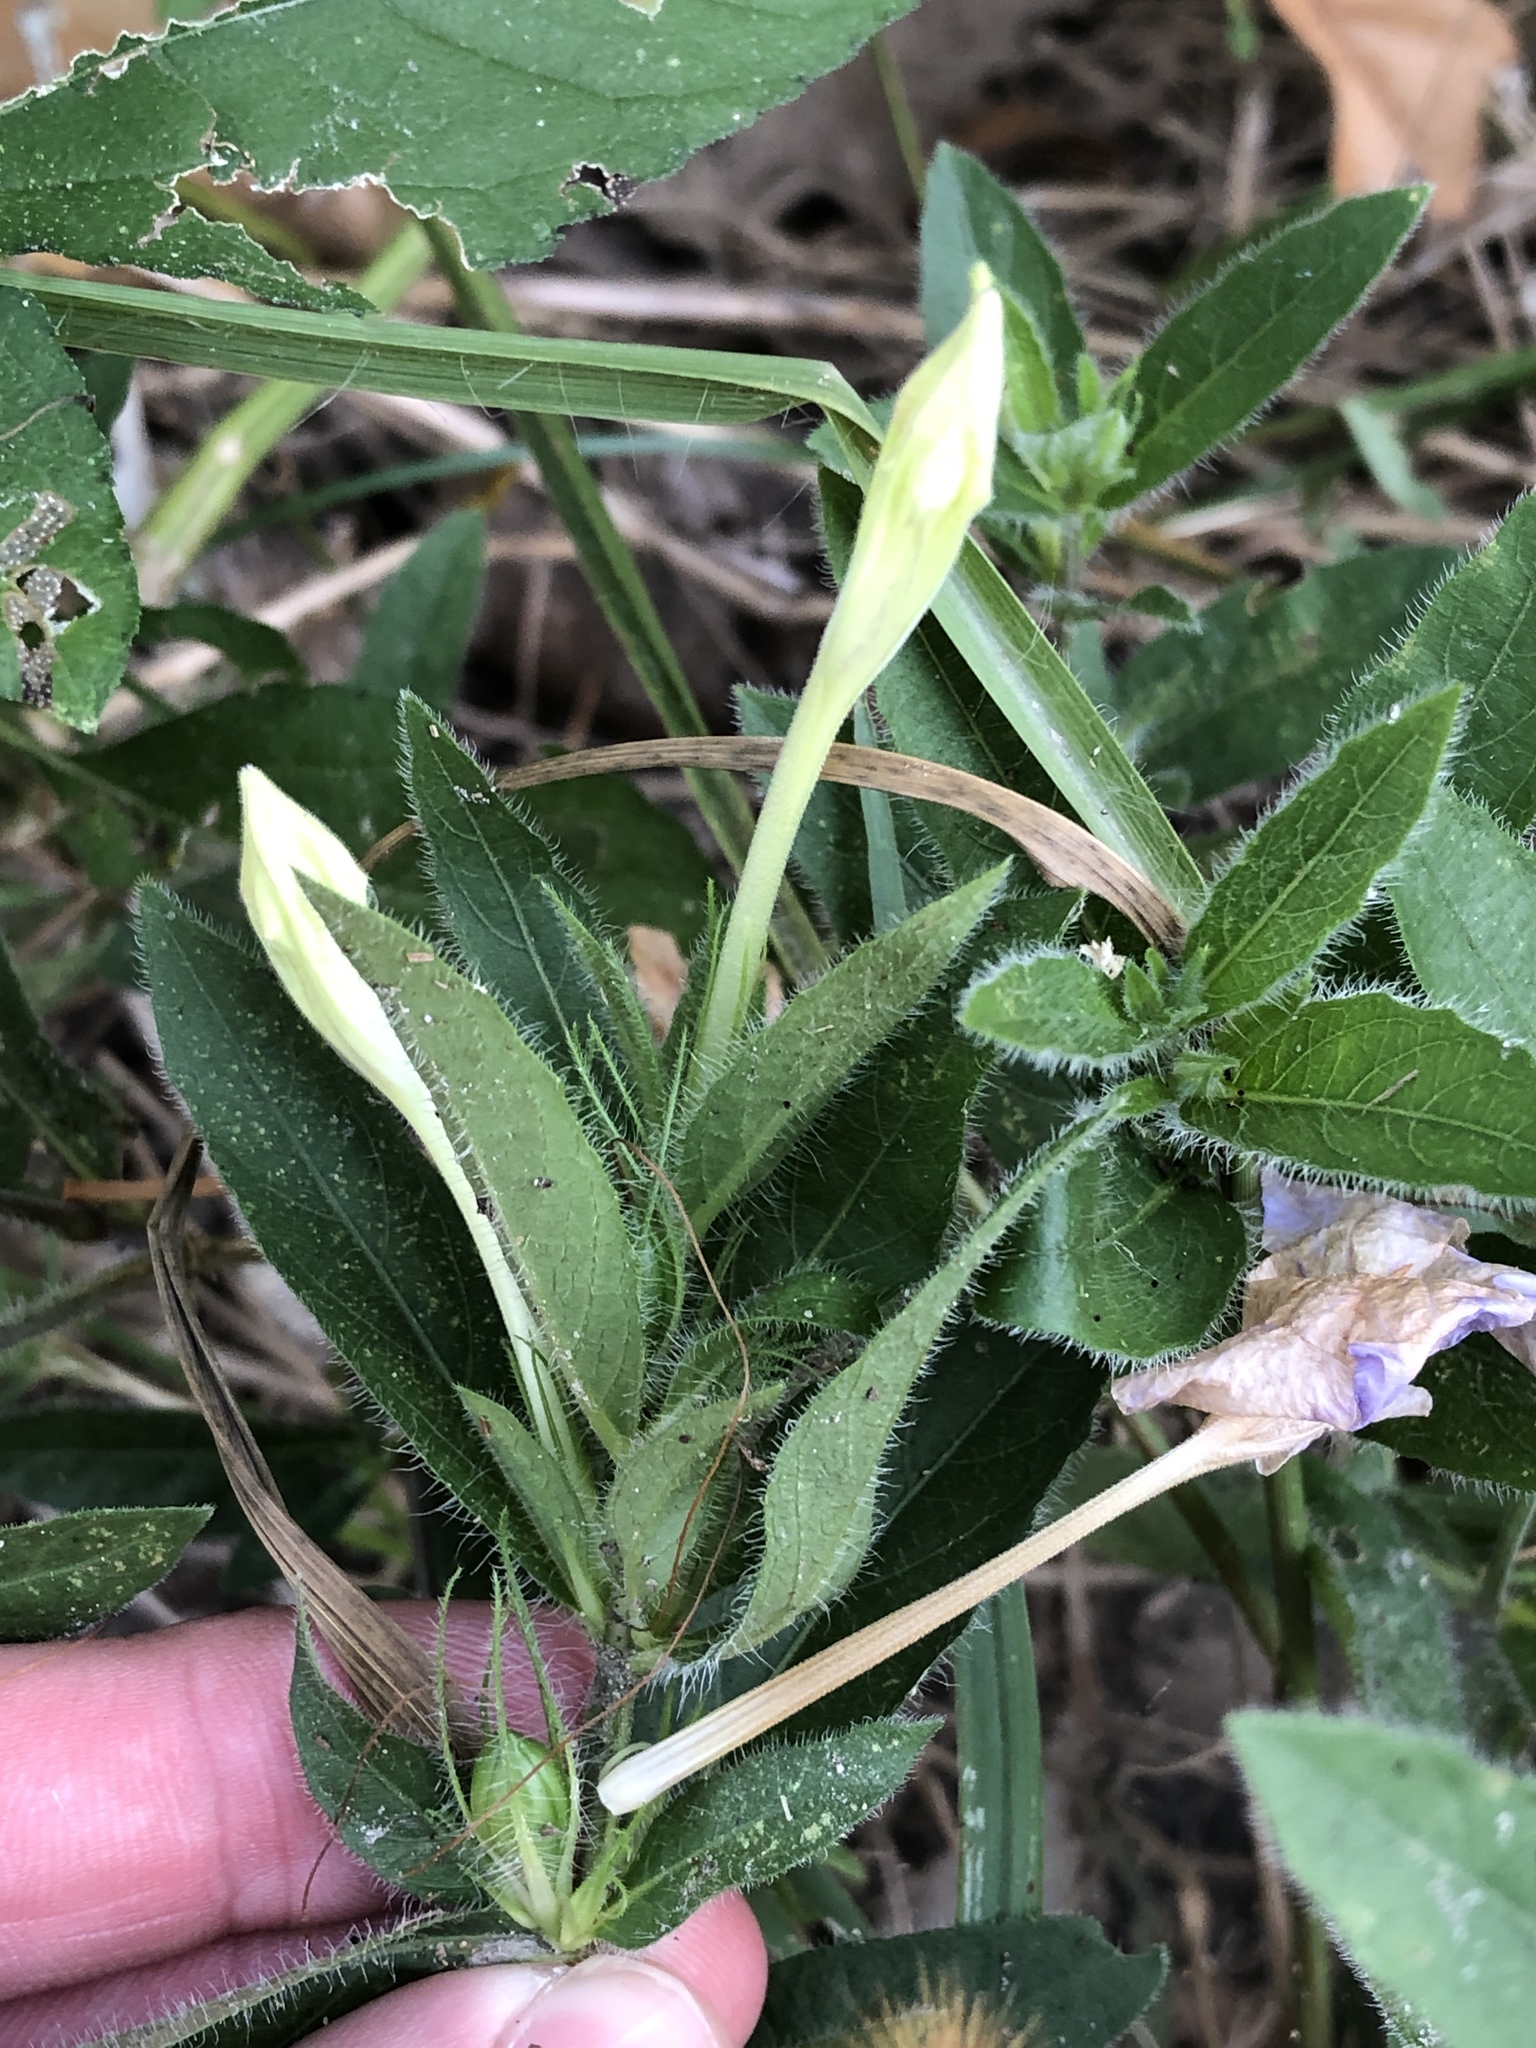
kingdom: Plantae
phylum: Tracheophyta
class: Magnoliopsida
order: Lamiales
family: Acanthaceae
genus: Ruellia
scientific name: Ruellia humilis
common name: Fringe-leaf ruellia
